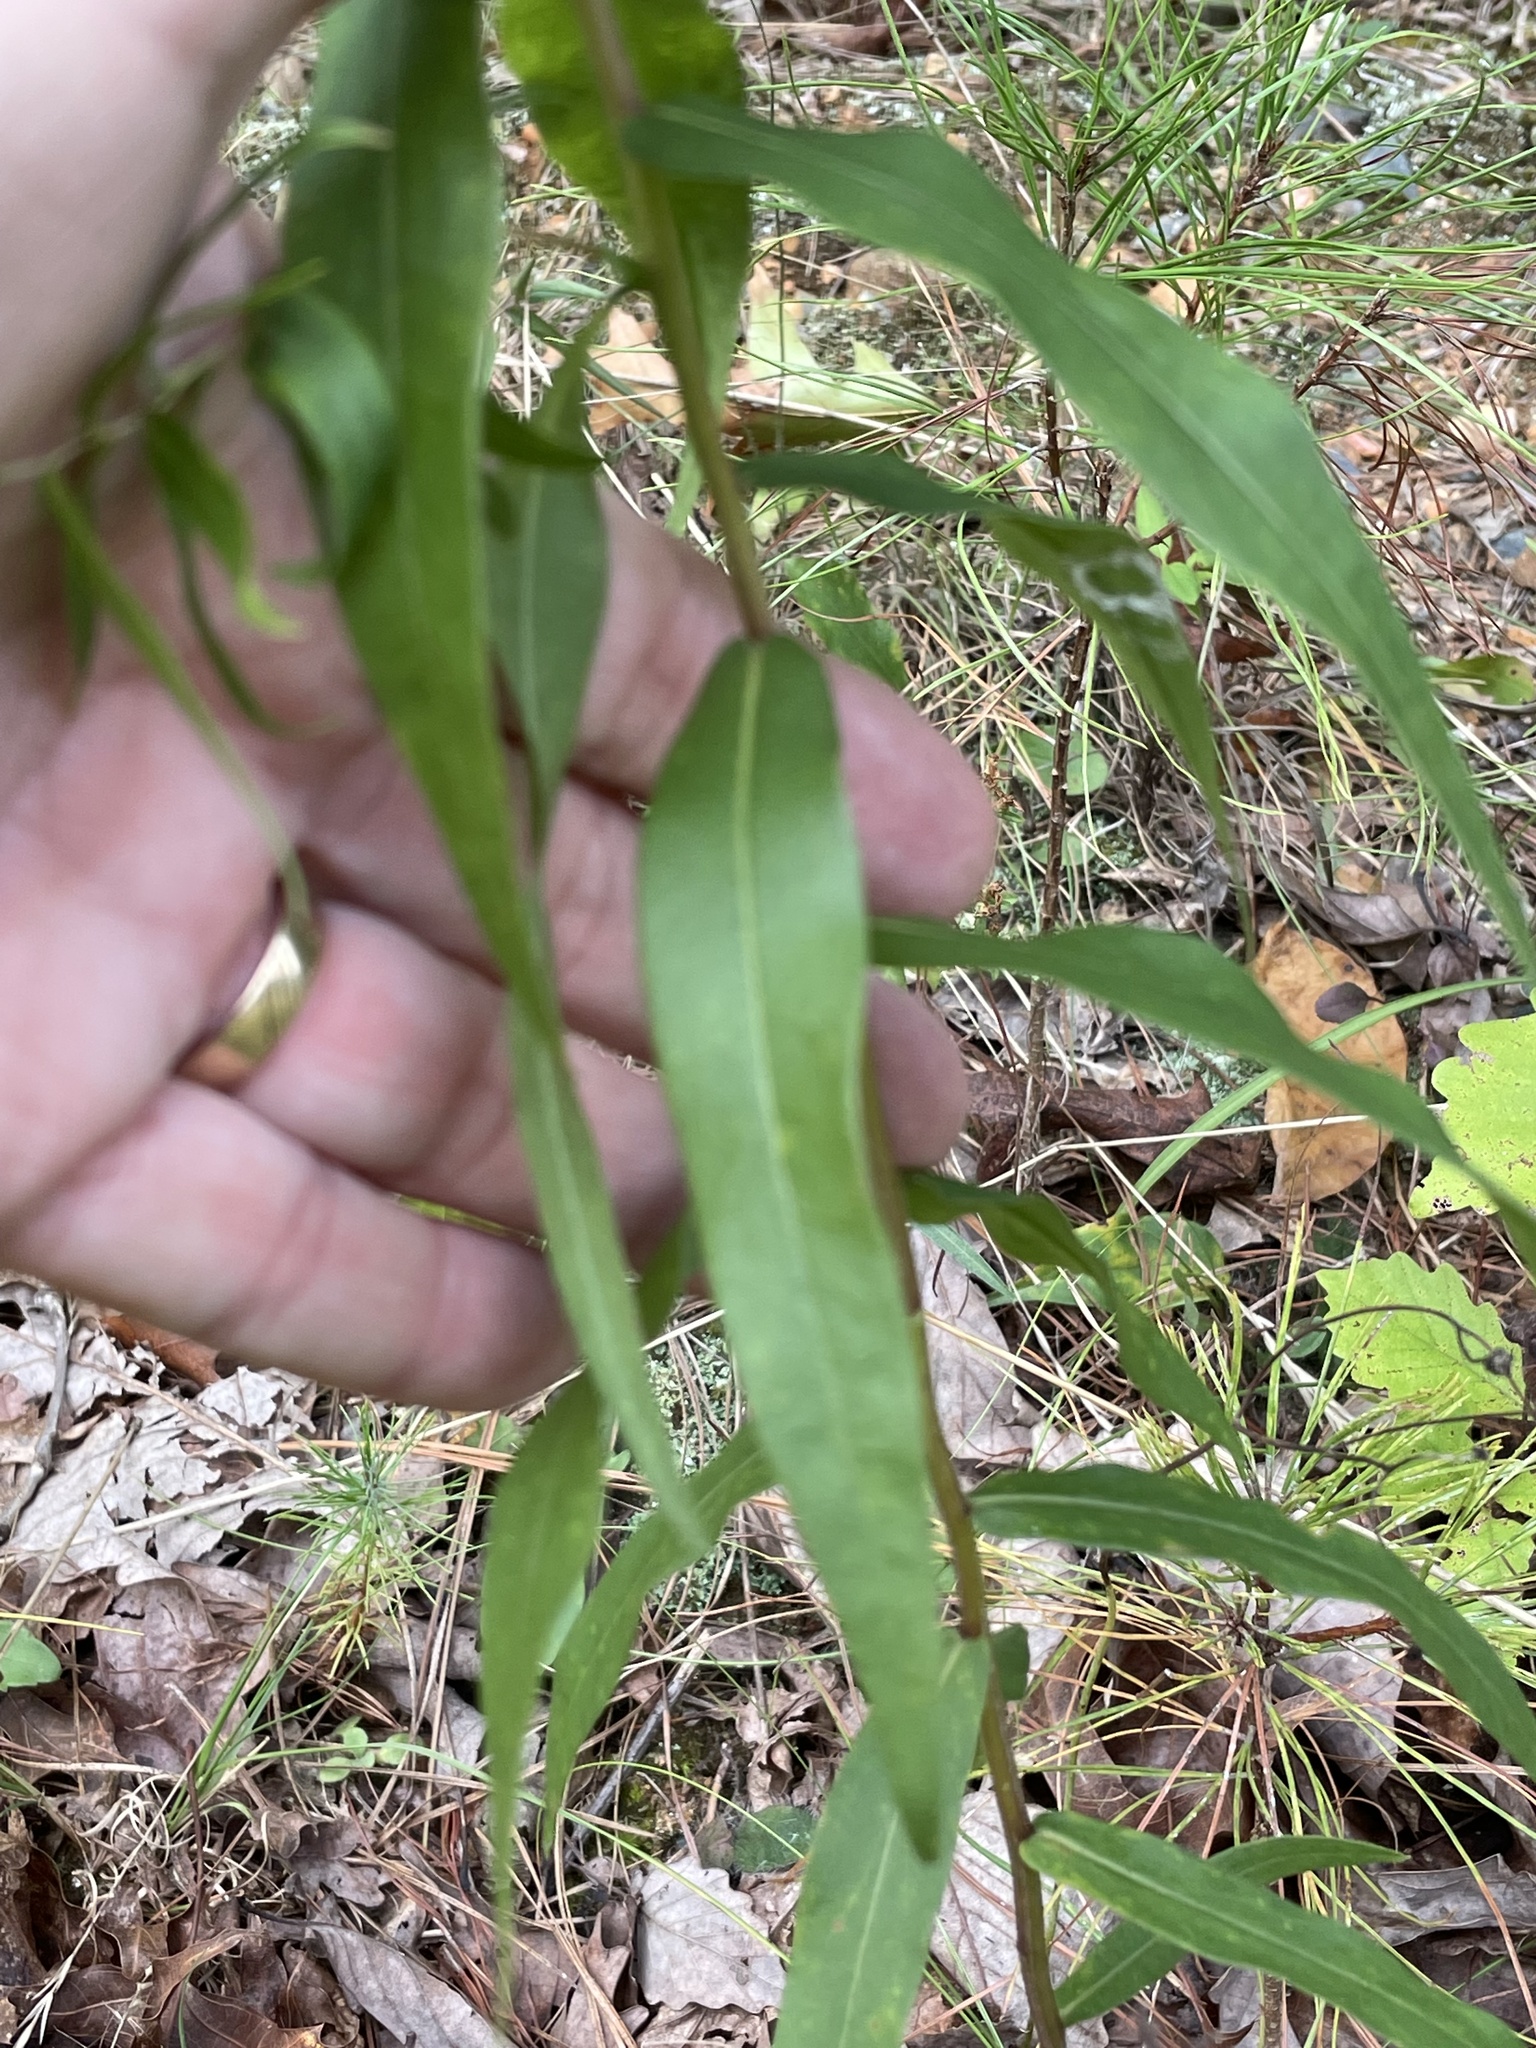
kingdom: Plantae
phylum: Tracheophyta
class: Magnoliopsida
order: Asterales
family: Asteraceae
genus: Solidago
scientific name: Solidago odora
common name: Anise-scented goldenrod
